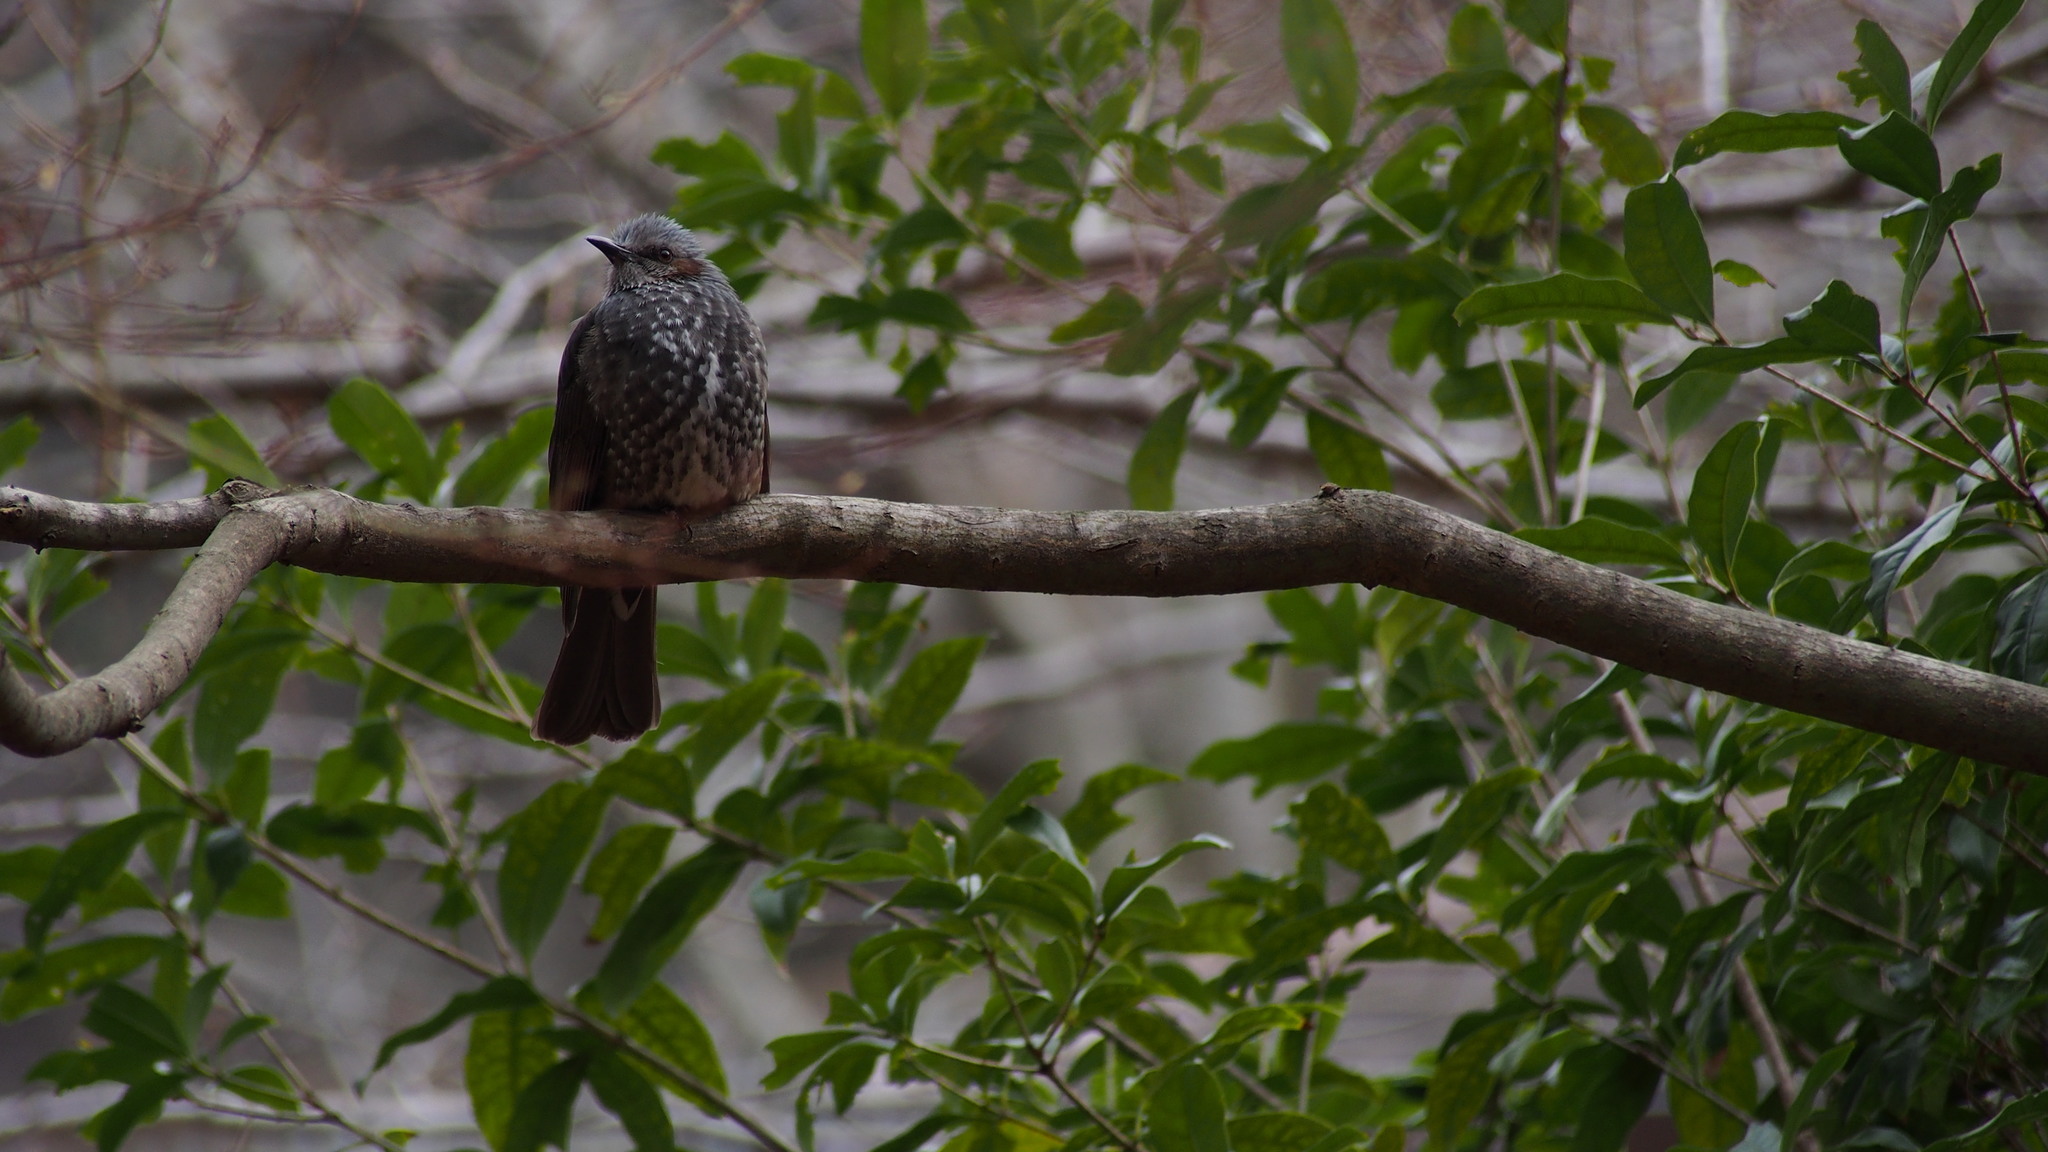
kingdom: Animalia
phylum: Chordata
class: Aves
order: Passeriformes
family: Pycnonotidae
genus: Hypsipetes
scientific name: Hypsipetes amaurotis
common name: Brown-eared bulbul
